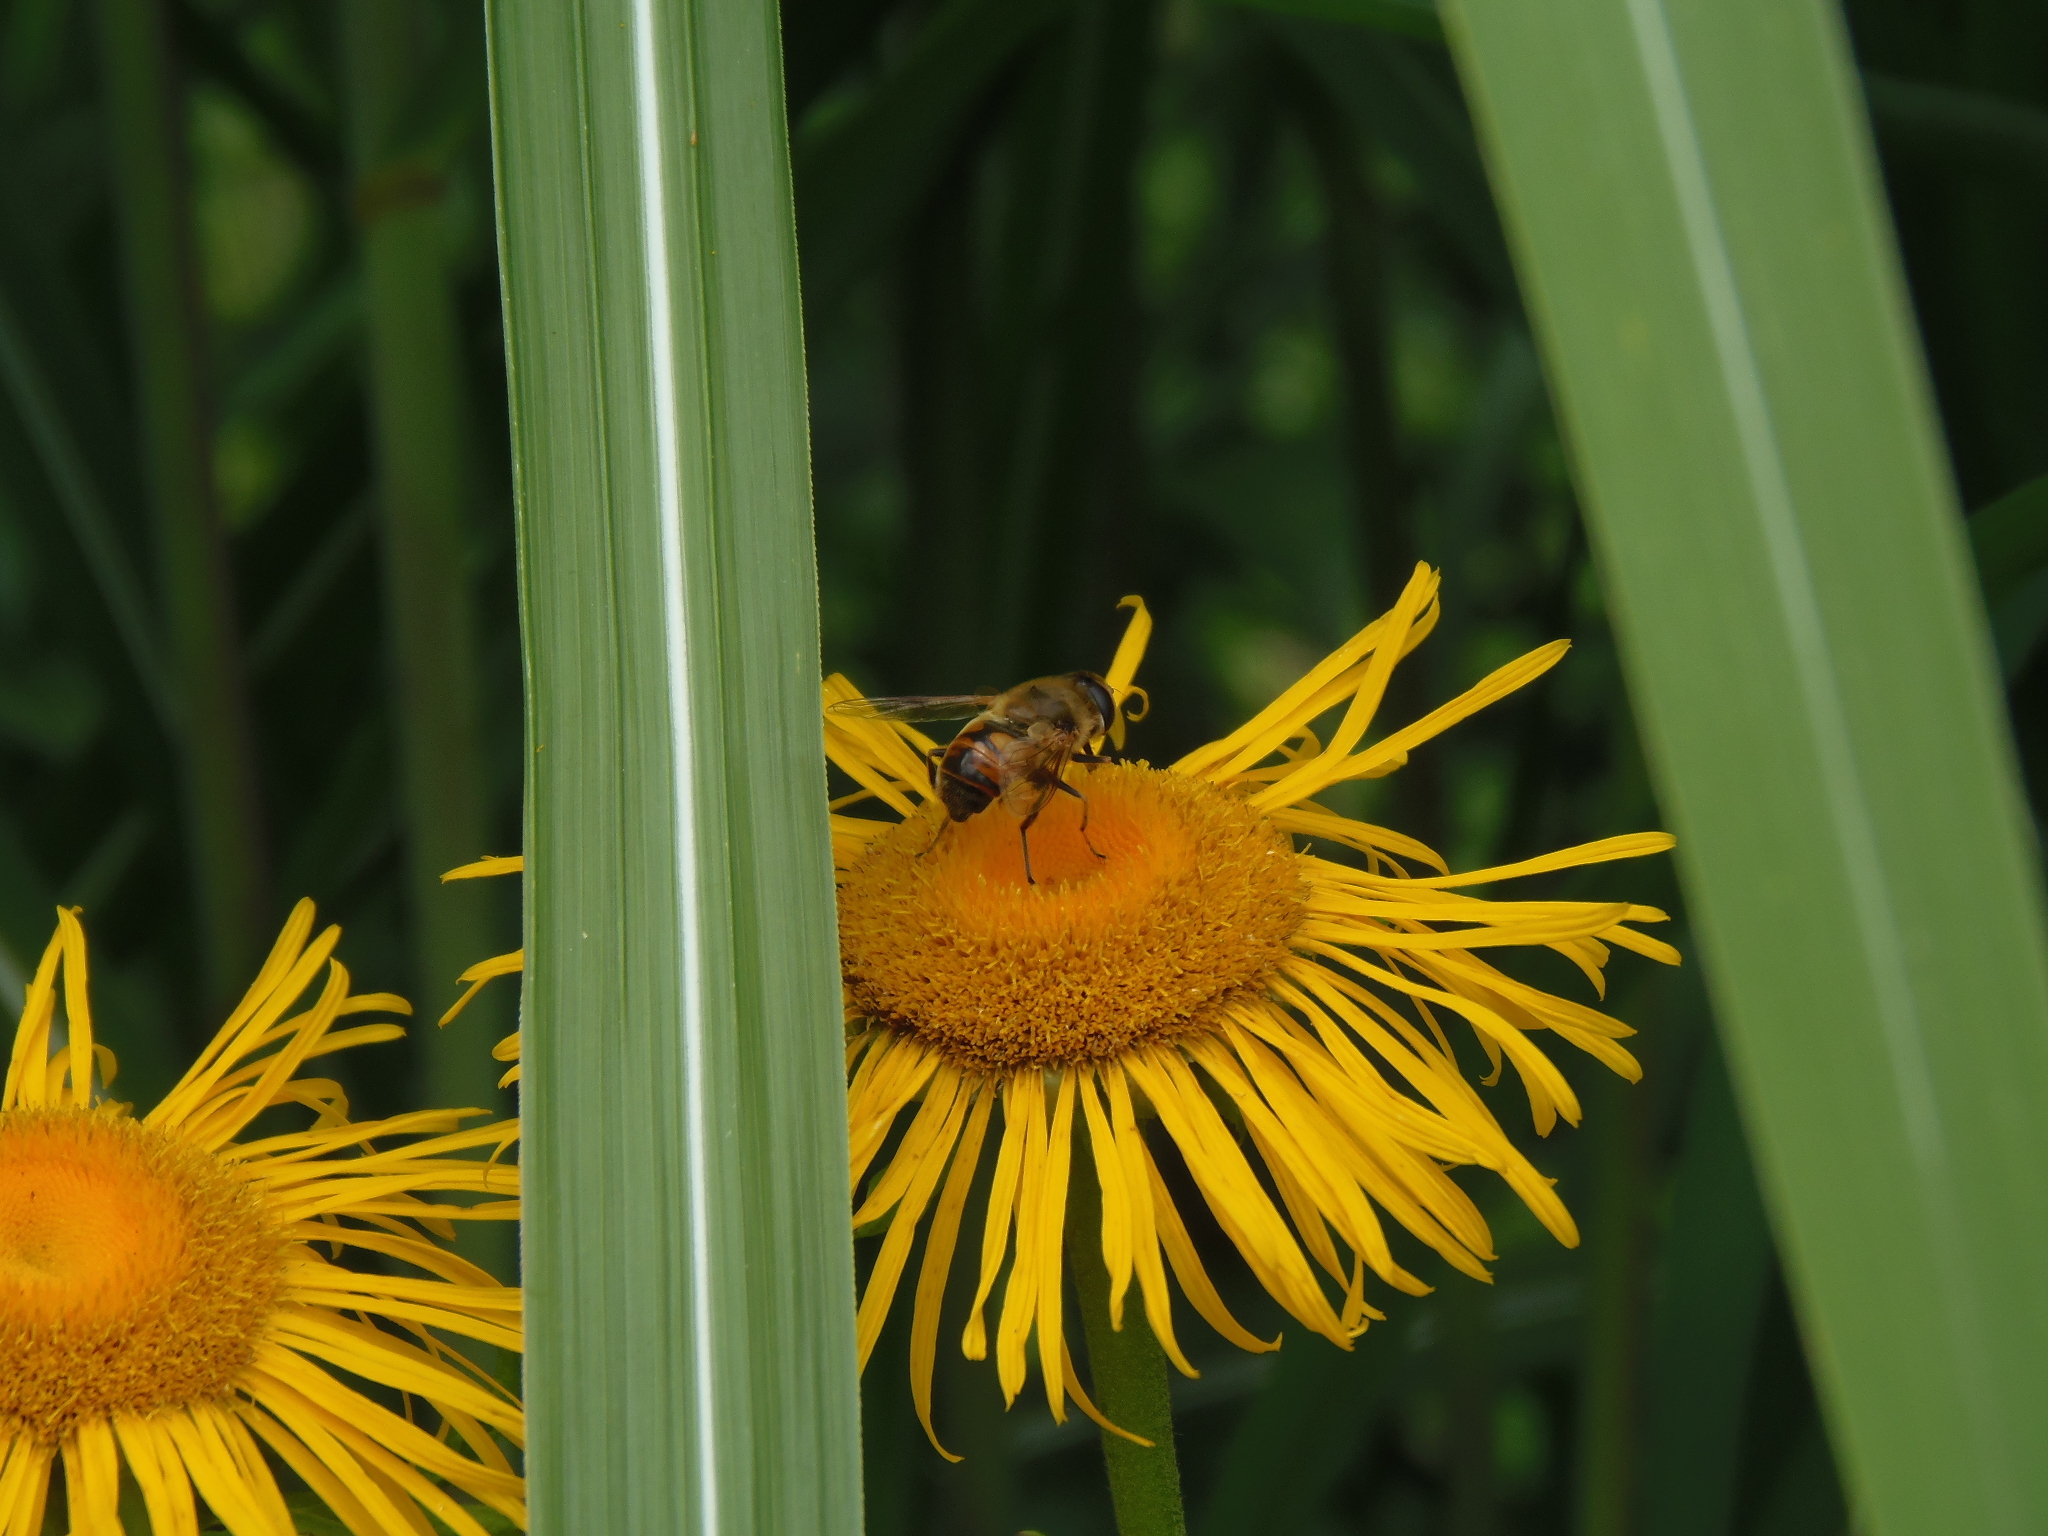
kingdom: Animalia
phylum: Arthropoda
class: Insecta
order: Diptera
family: Syrphidae
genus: Eristalis
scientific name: Eristalis tenax
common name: Drone fly
